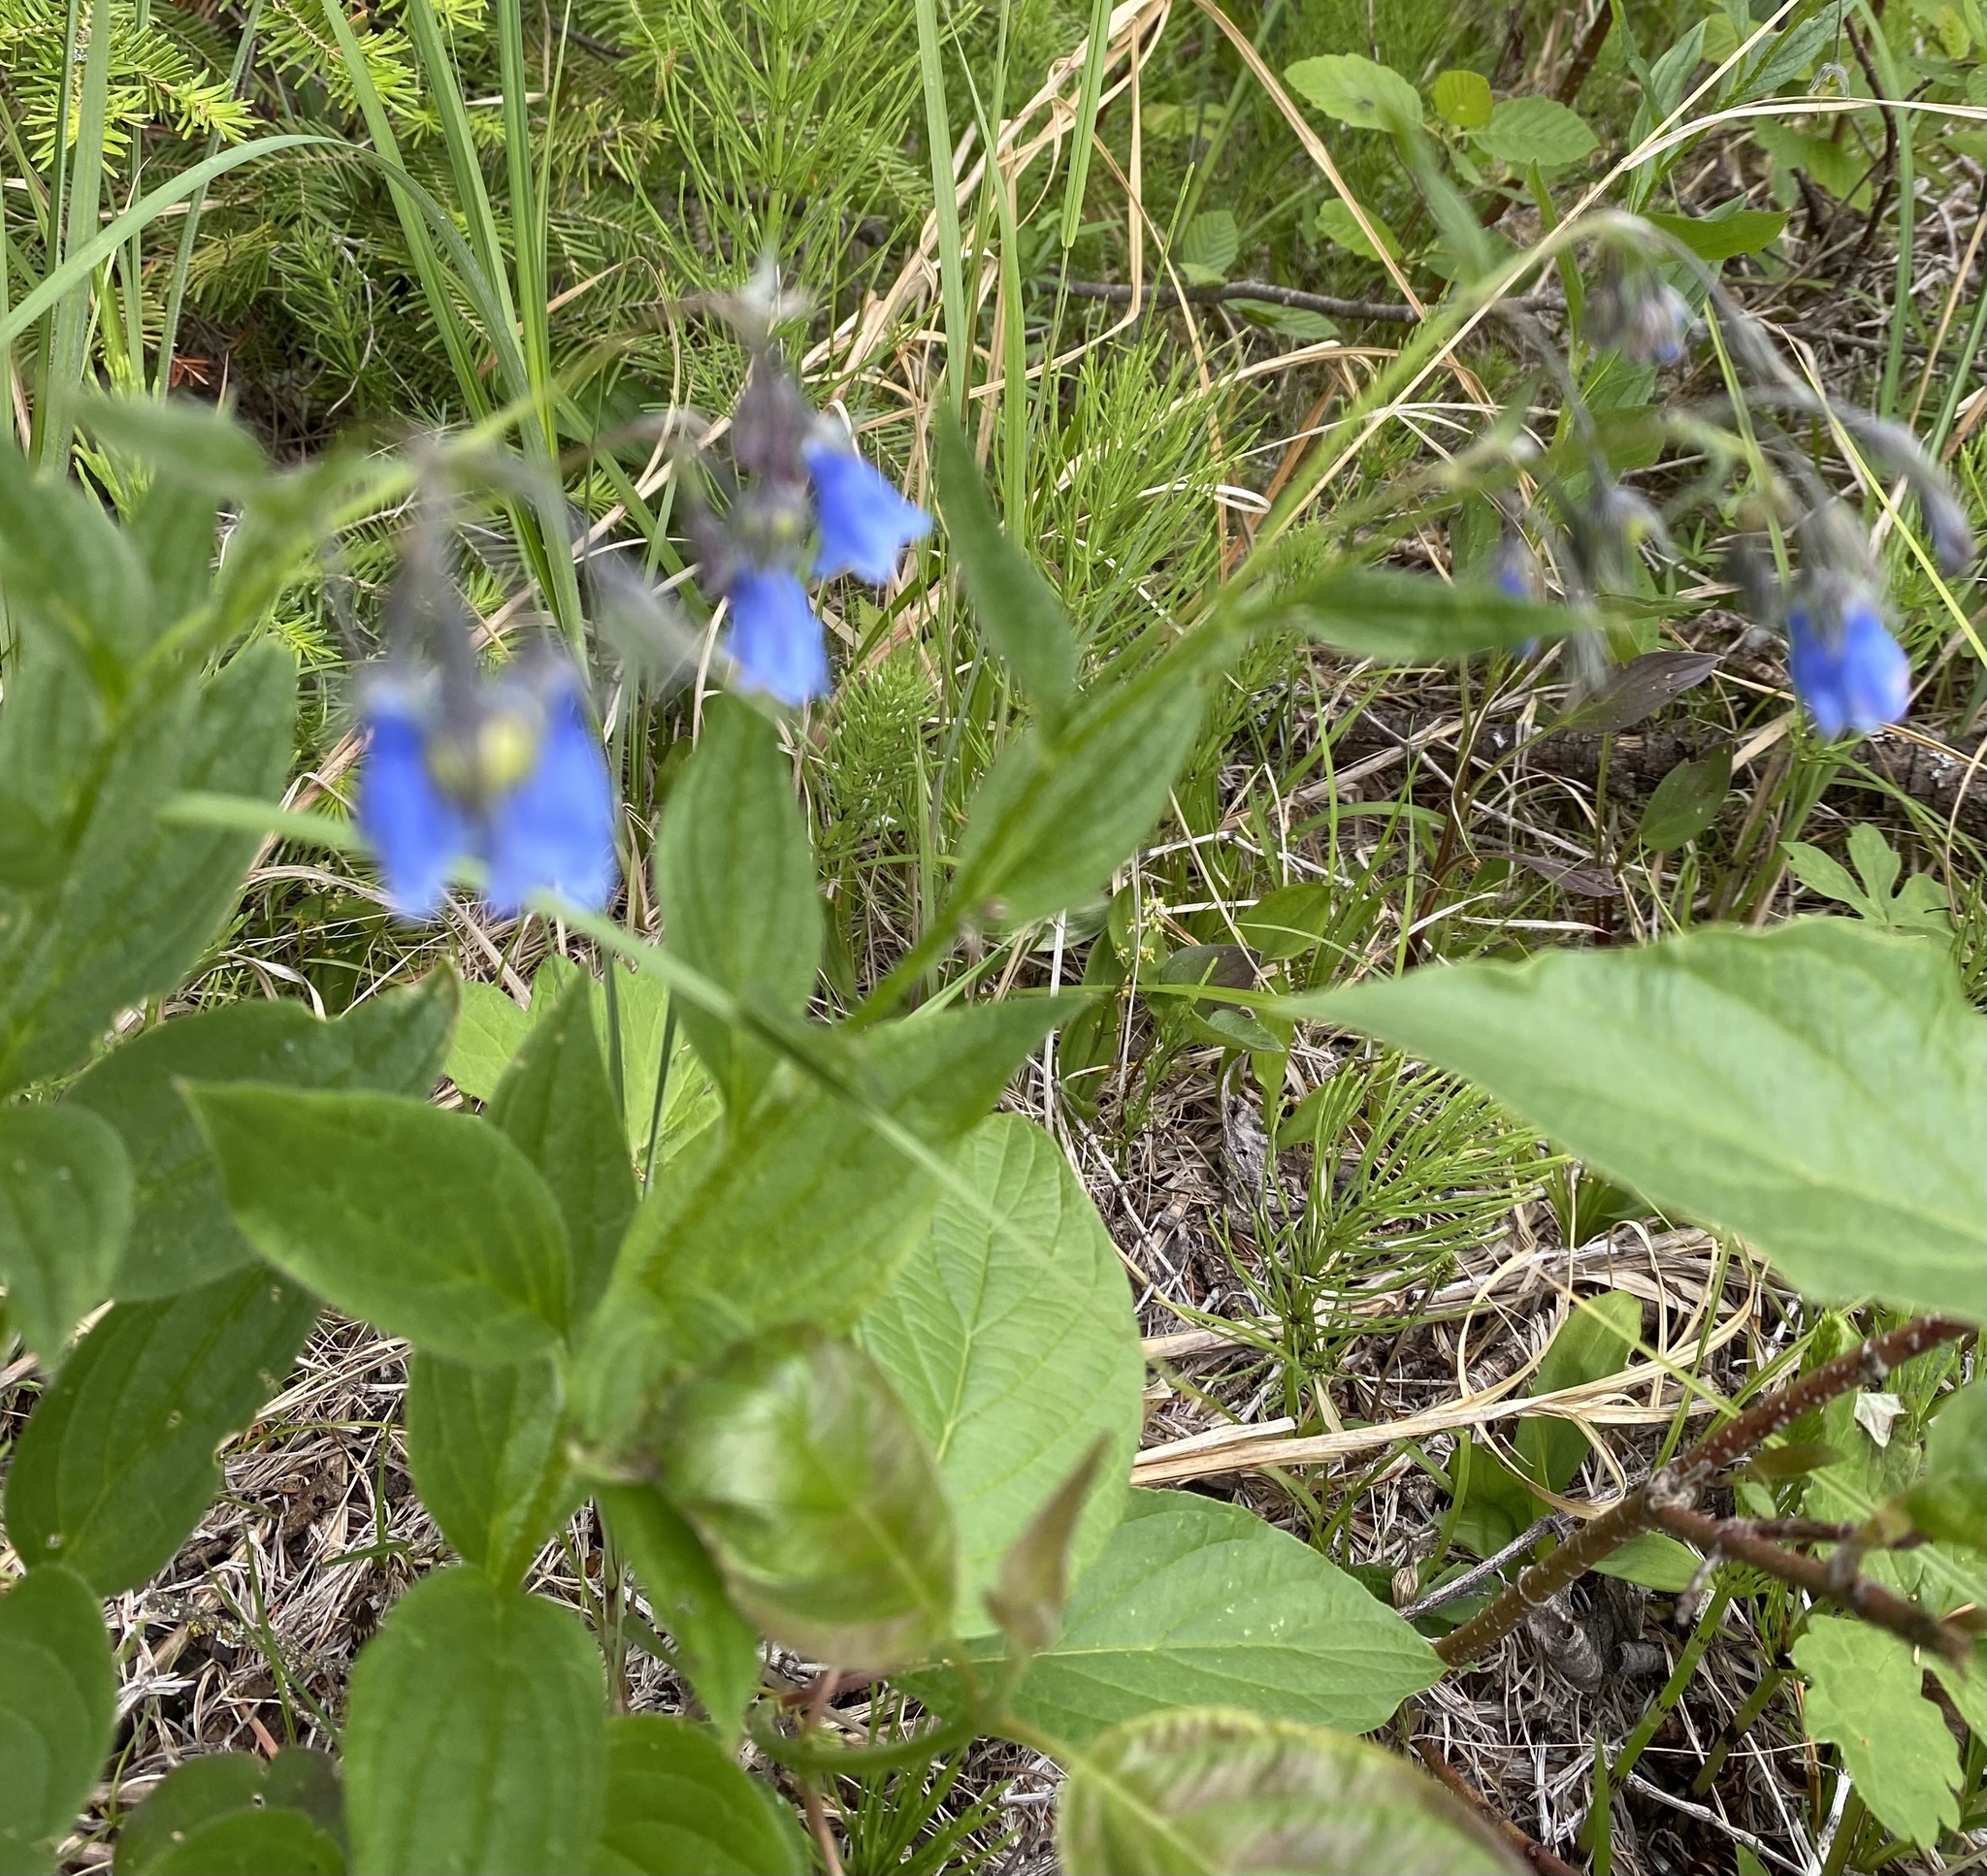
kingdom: Plantae
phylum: Tracheophyta
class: Magnoliopsida
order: Boraginales
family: Boraginaceae
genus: Mertensia
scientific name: Mertensia paniculata
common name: Panicled bluebells
